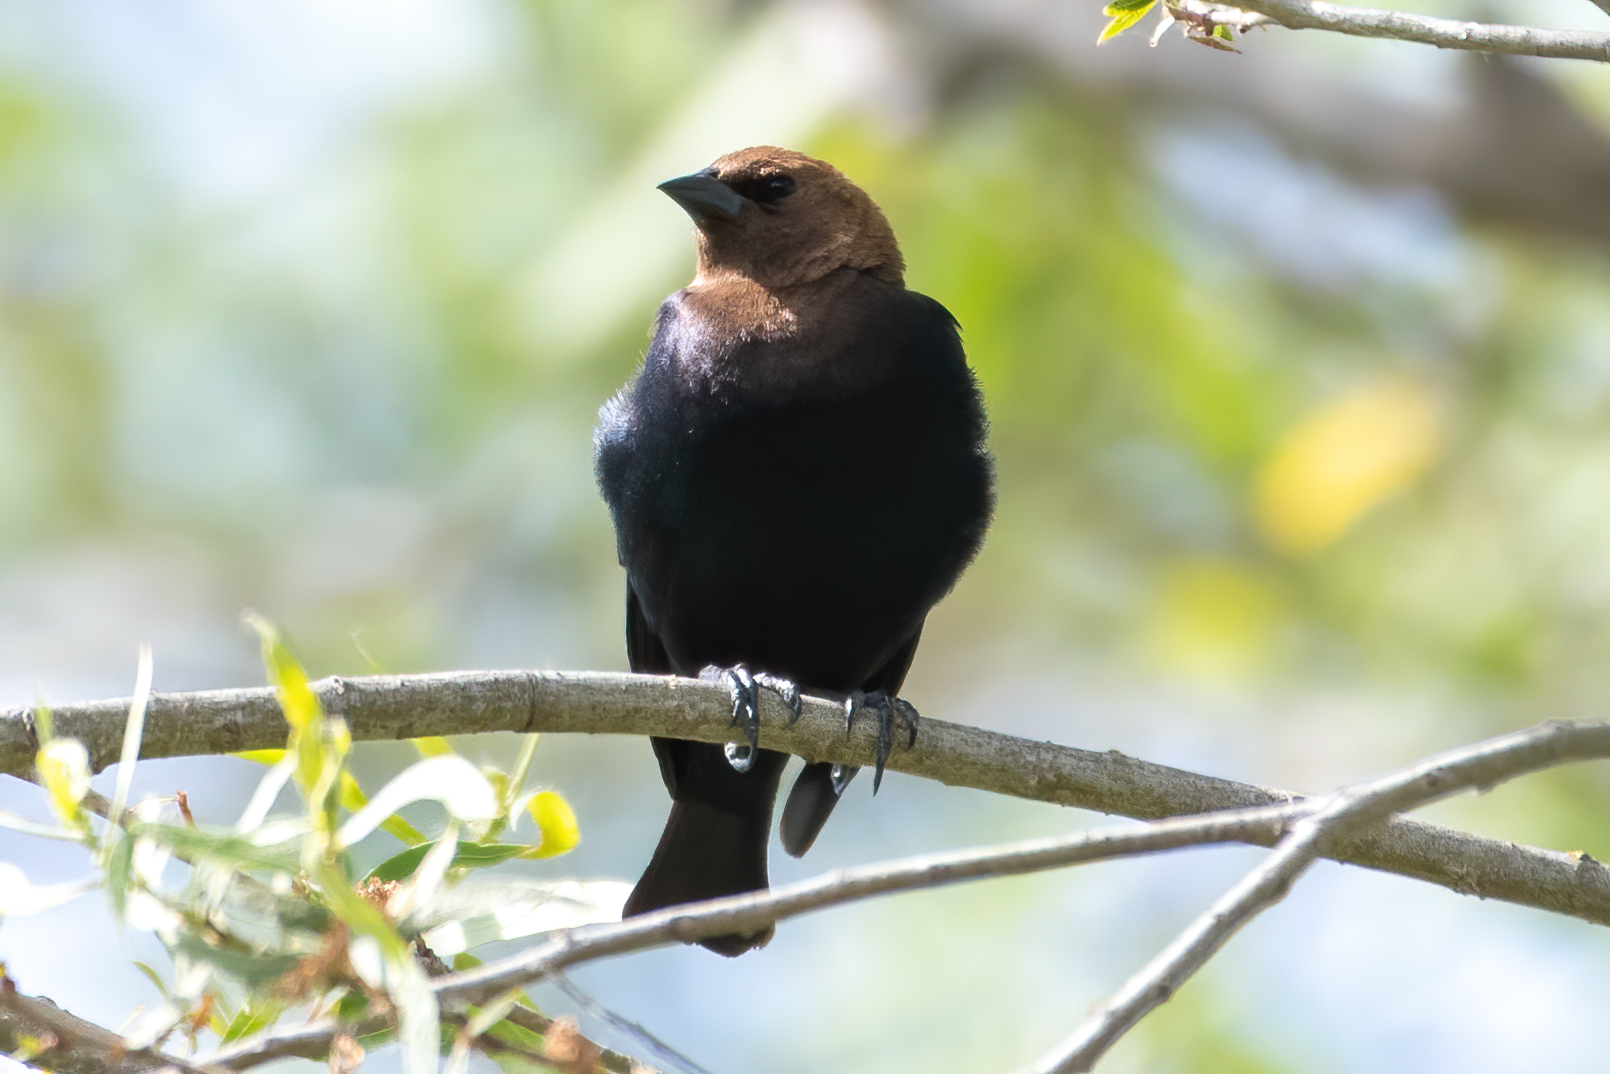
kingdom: Animalia
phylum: Chordata
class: Aves
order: Passeriformes
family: Icteridae
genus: Molothrus
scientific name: Molothrus ater
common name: Brown-headed cowbird
